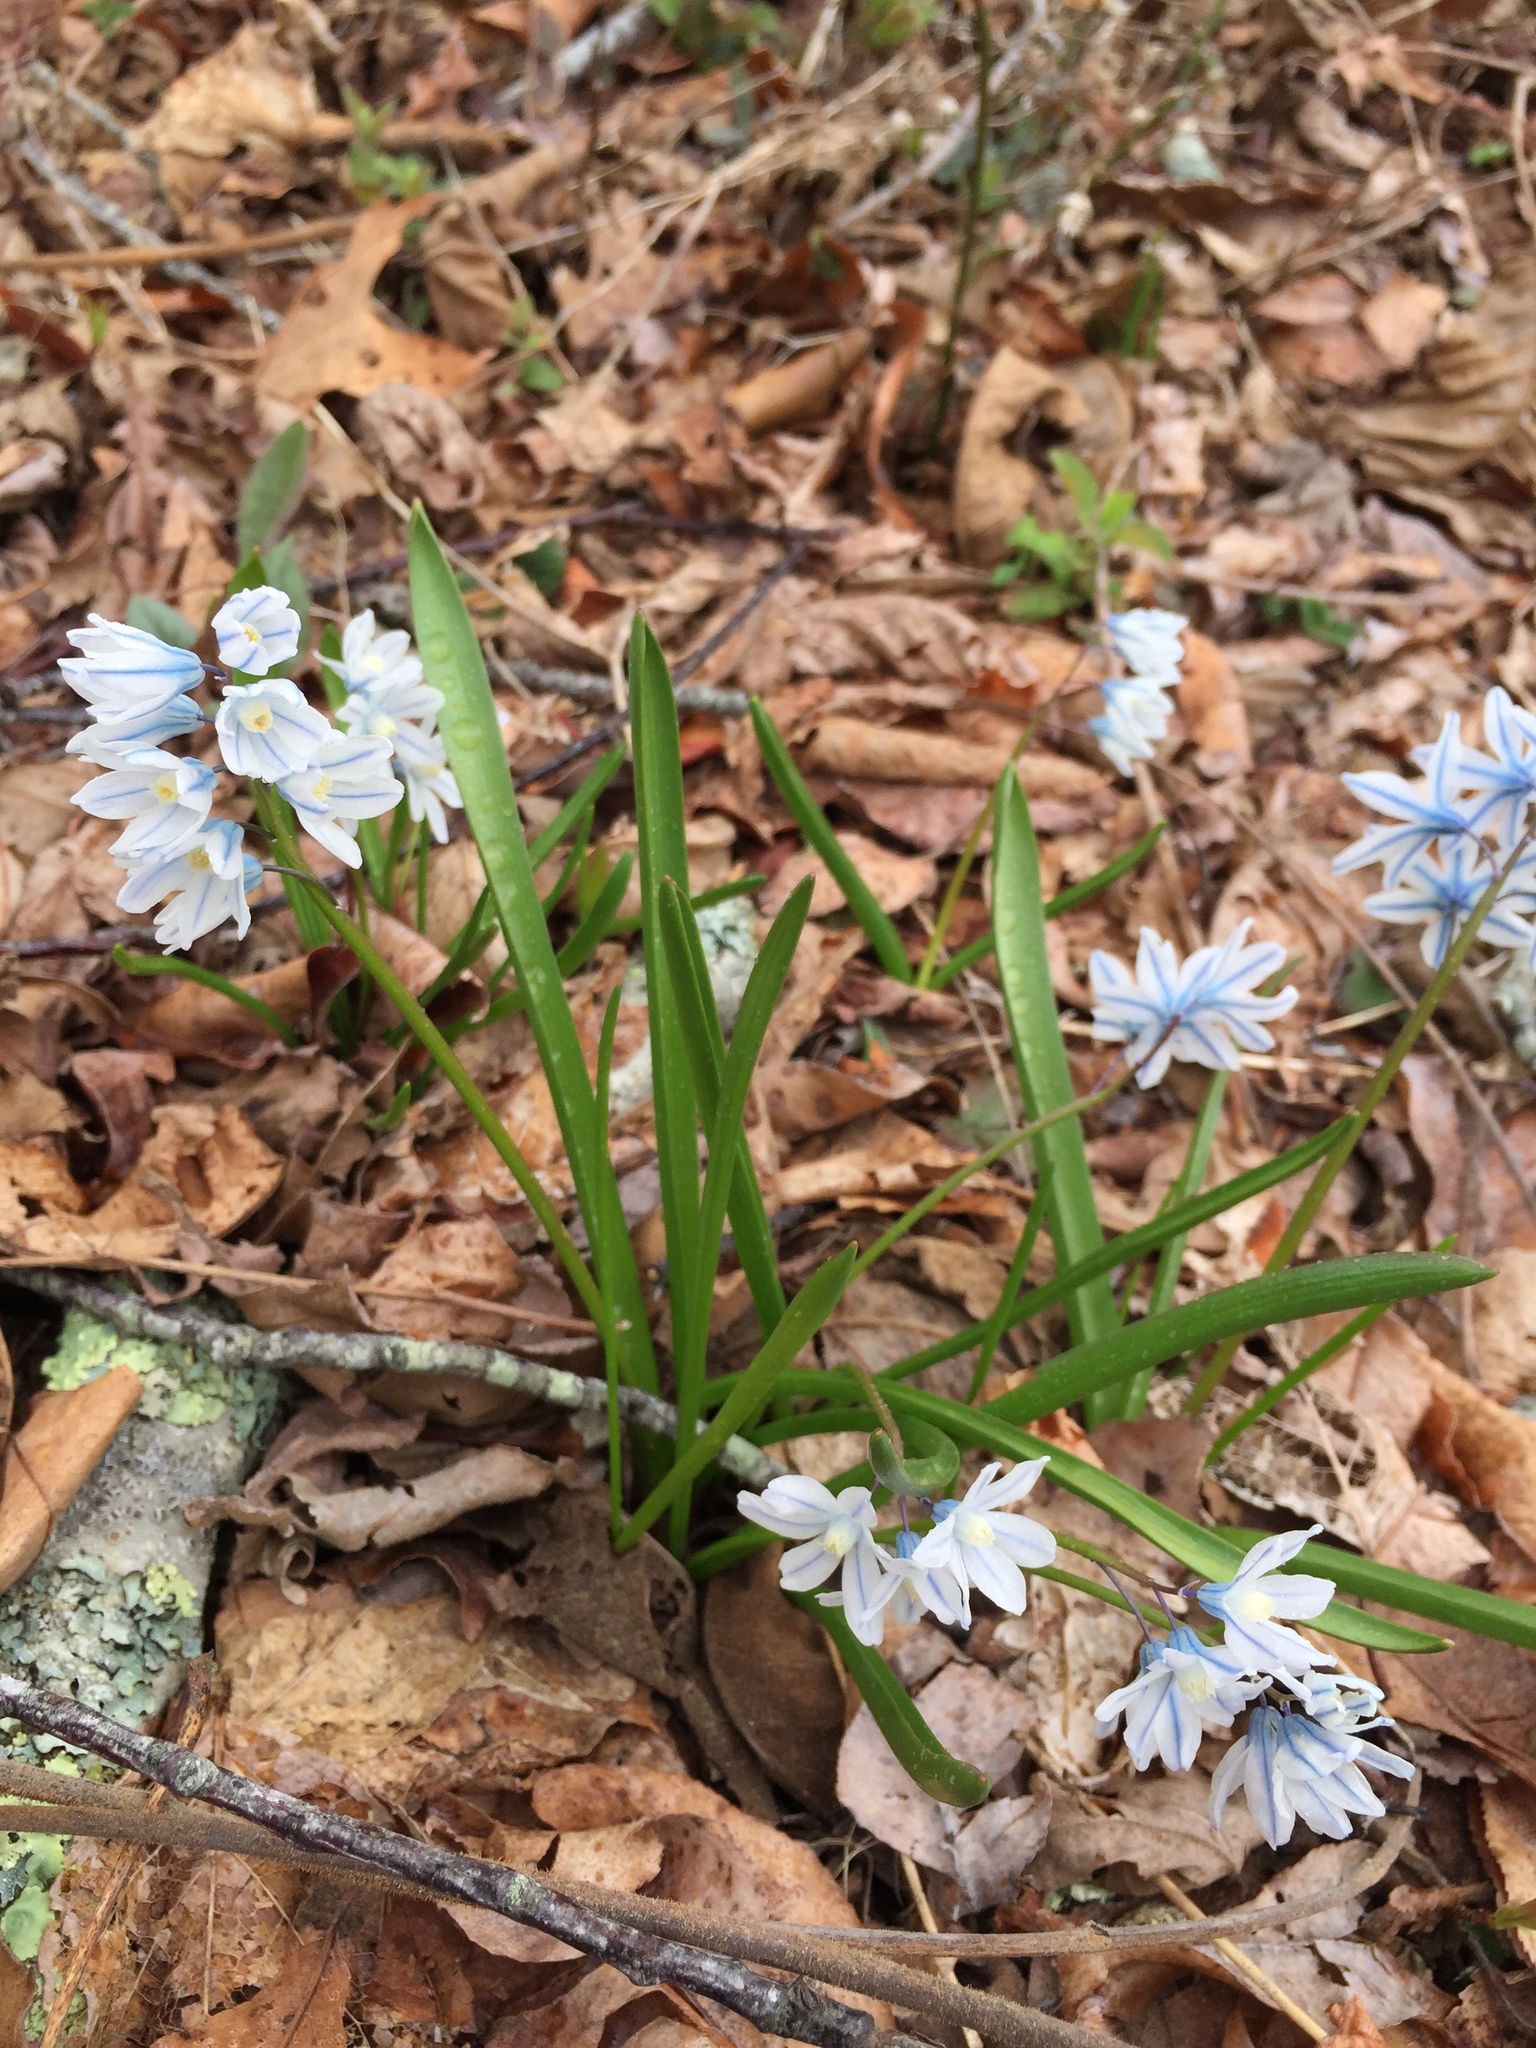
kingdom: Plantae
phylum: Tracheophyta
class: Liliopsida
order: Asparagales
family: Asparagaceae
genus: Puschkinia
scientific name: Puschkinia scilloides
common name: Striped squill
